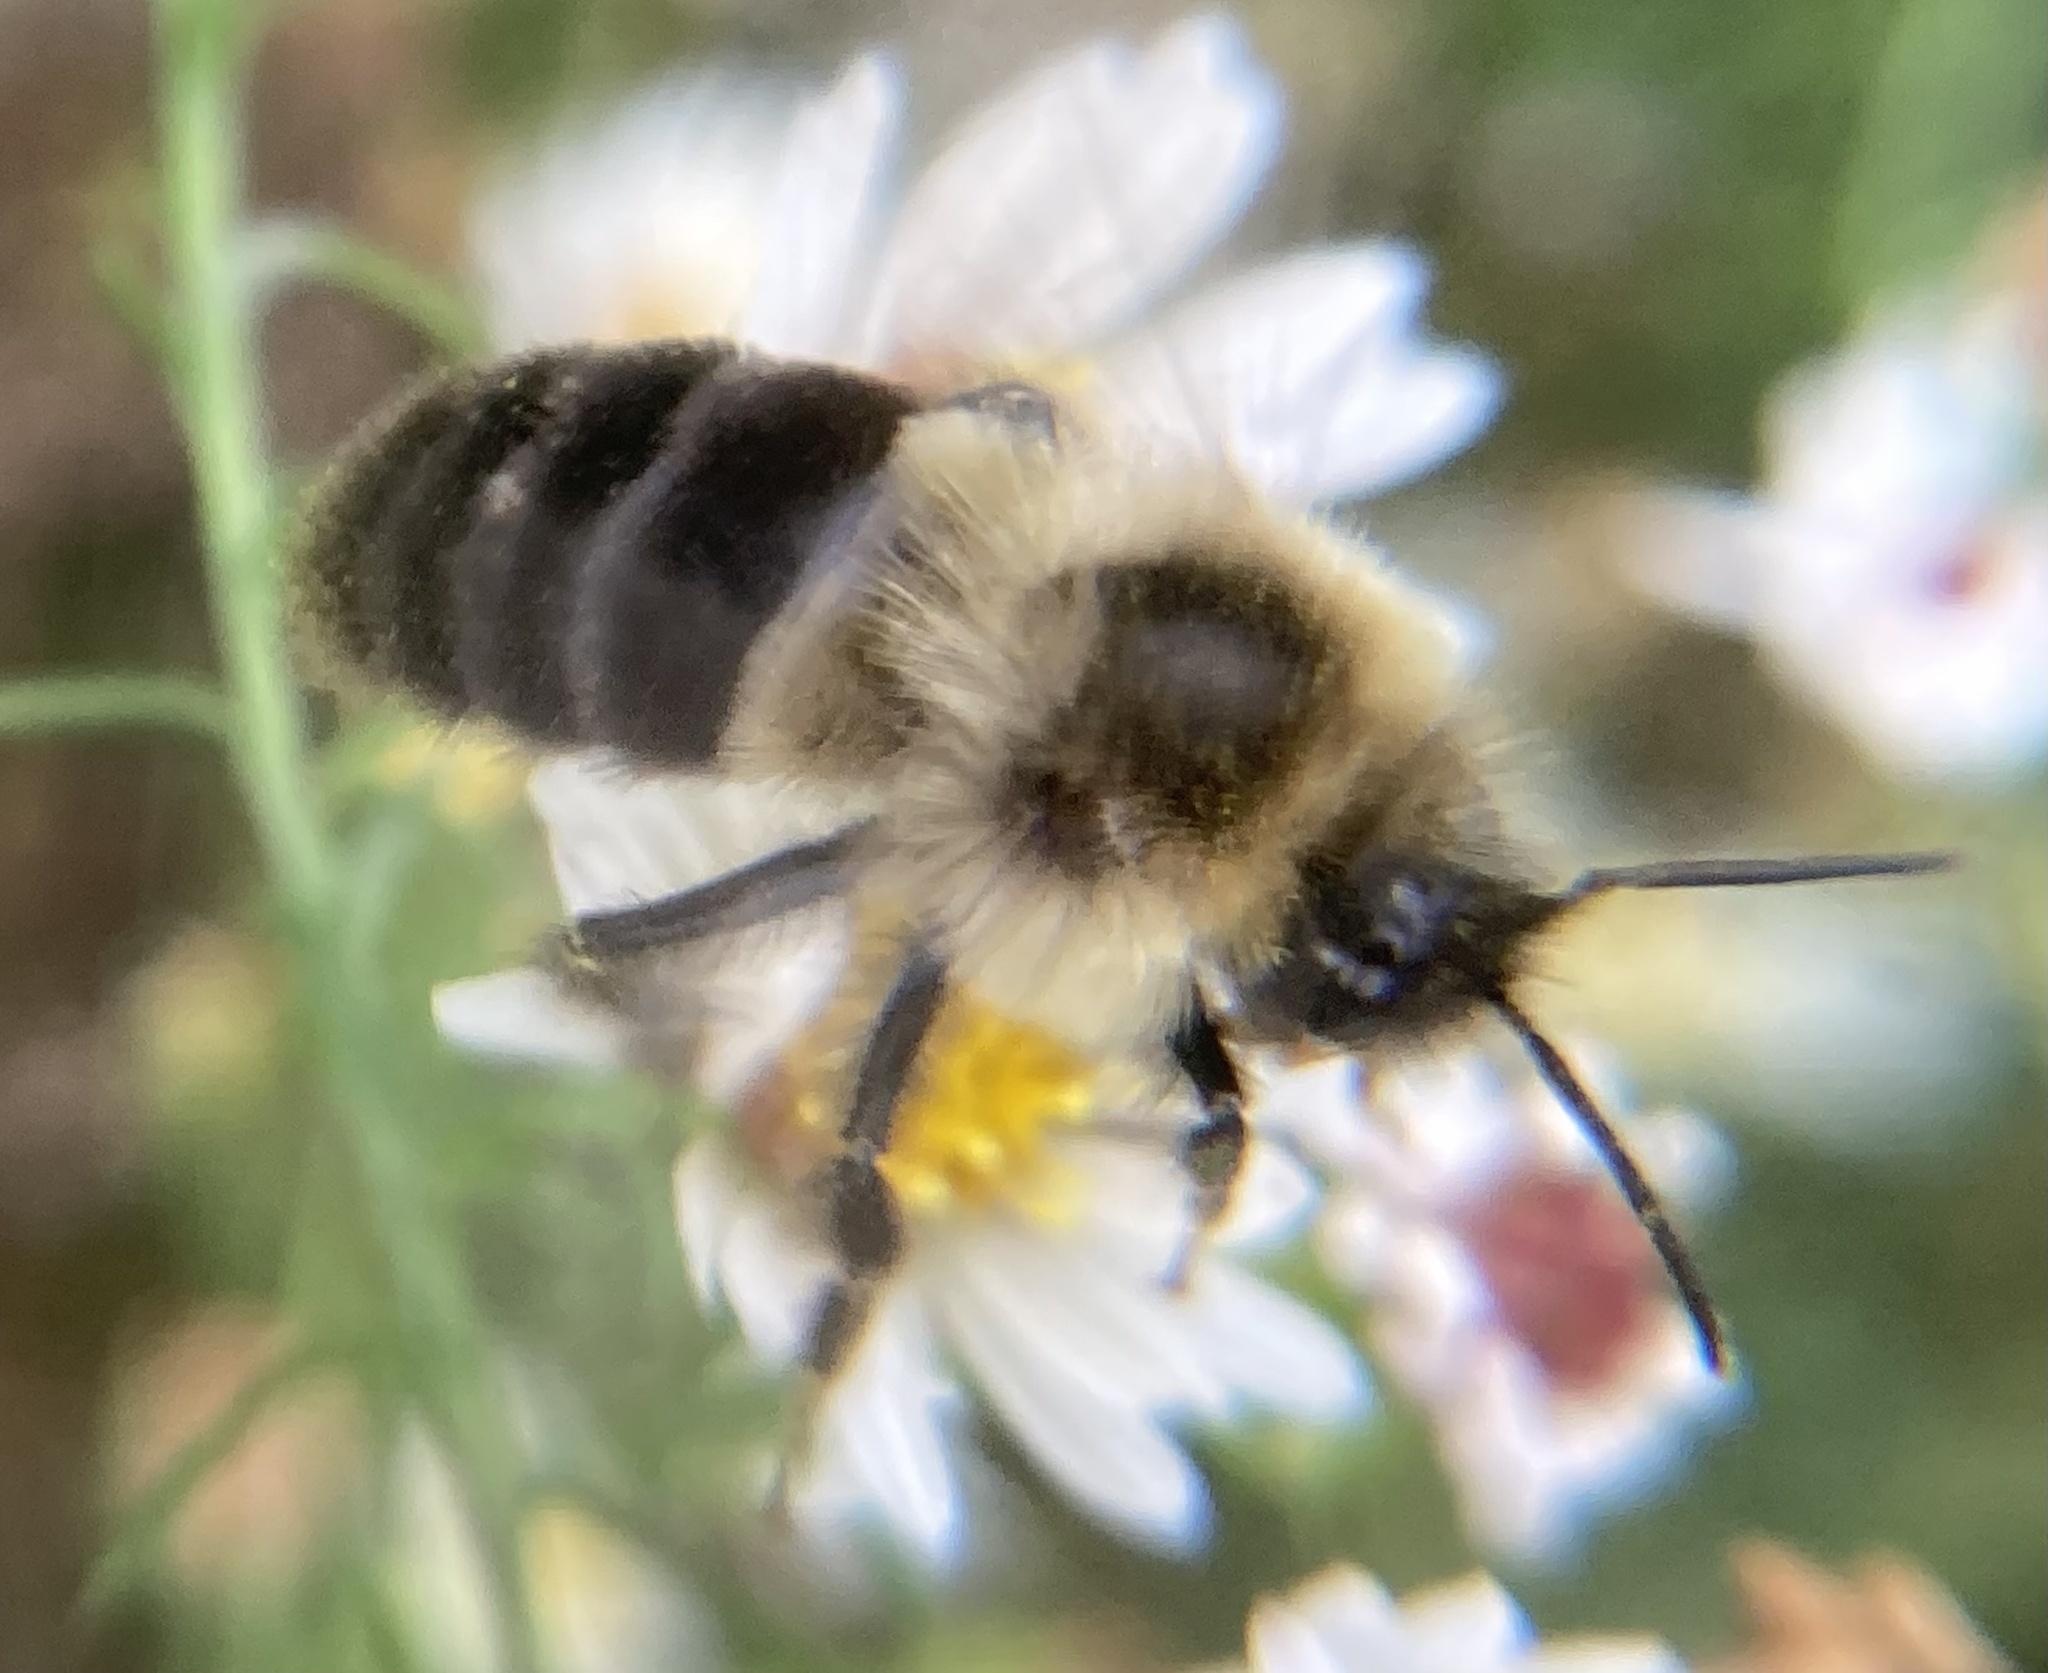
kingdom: Animalia
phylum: Arthropoda
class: Insecta
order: Hymenoptera
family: Apidae
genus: Bombus
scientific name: Bombus impatiens
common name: Common eastern bumble bee
